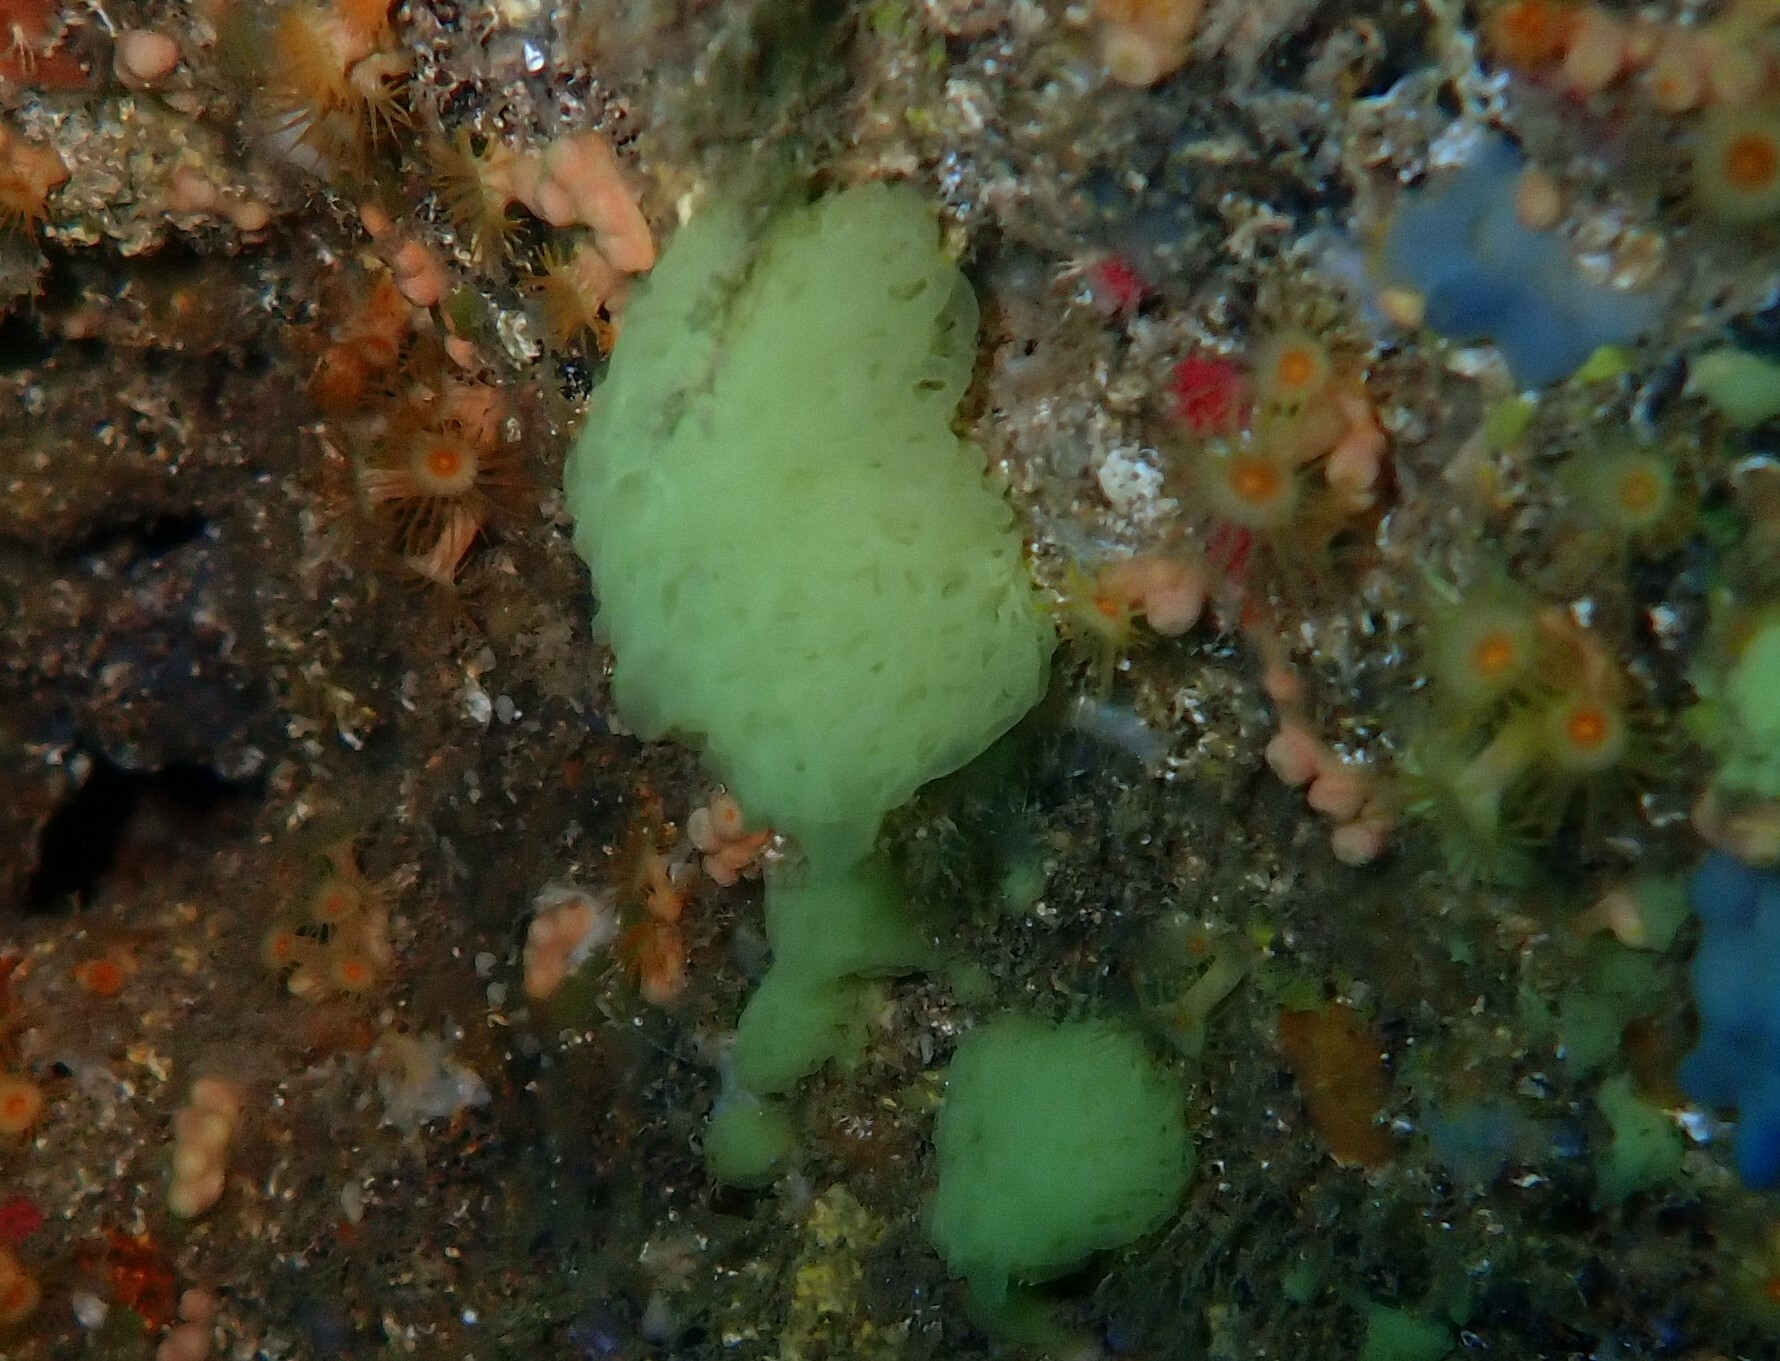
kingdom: Animalia
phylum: Porifera
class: Calcarea
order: Clathrinida
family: Clathrinidae
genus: Clathrina
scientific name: Clathrina clathrus
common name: Yellow clathrina
